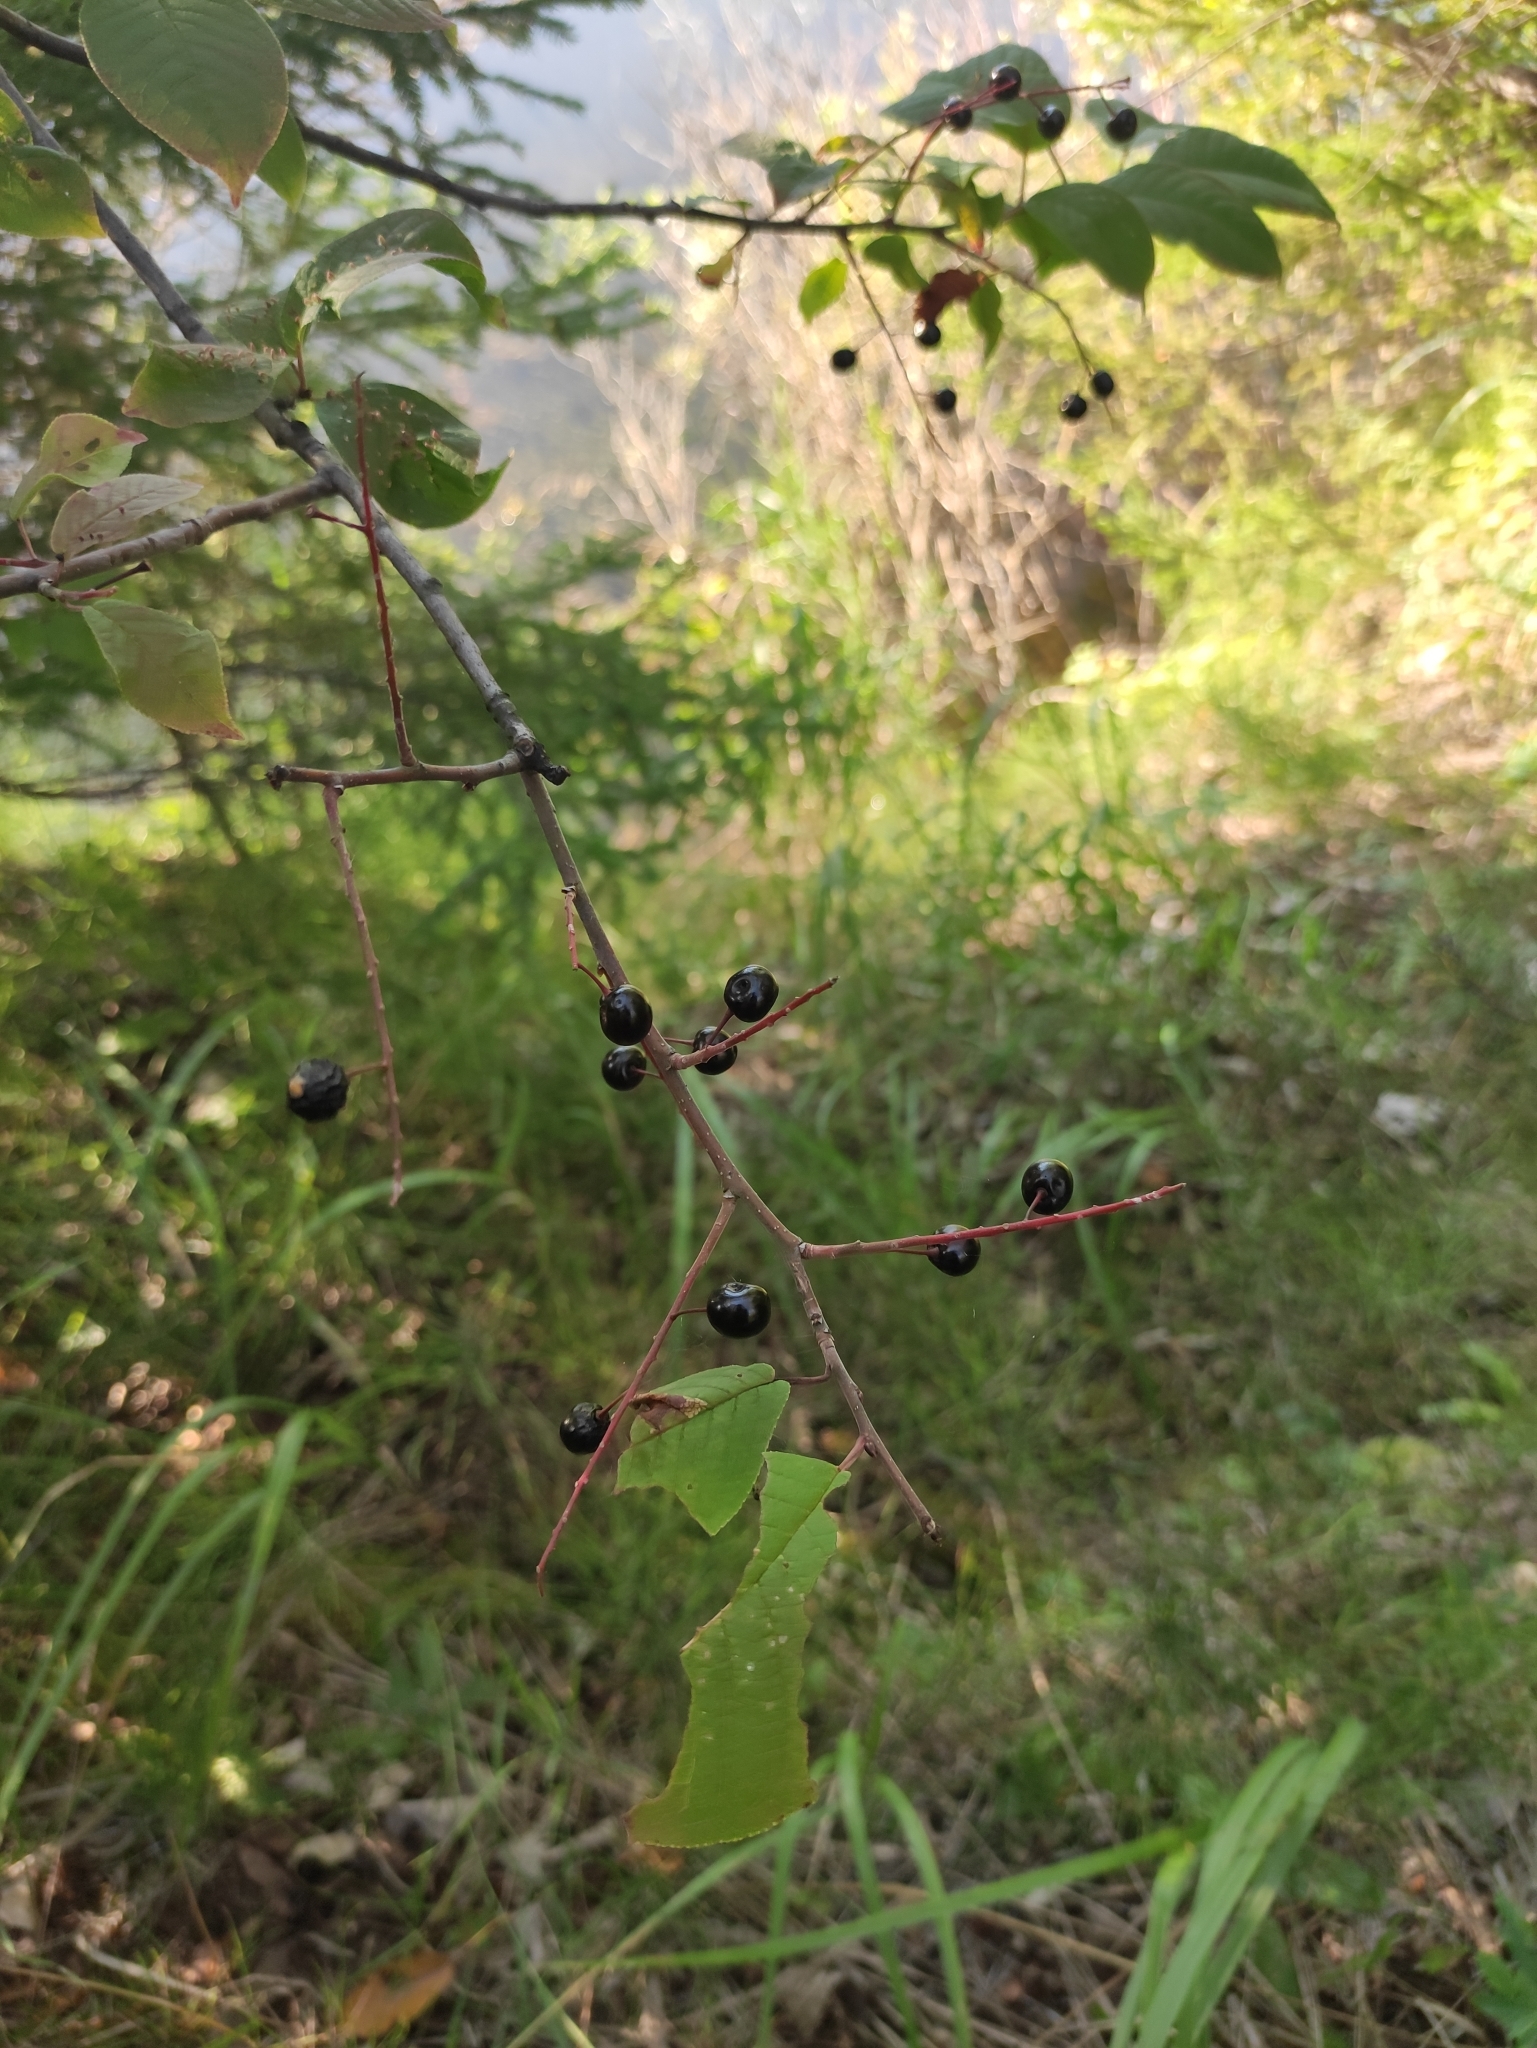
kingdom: Plantae
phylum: Tracheophyta
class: Magnoliopsida
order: Rosales
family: Rosaceae
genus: Prunus
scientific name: Prunus padus
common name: Bird cherry
